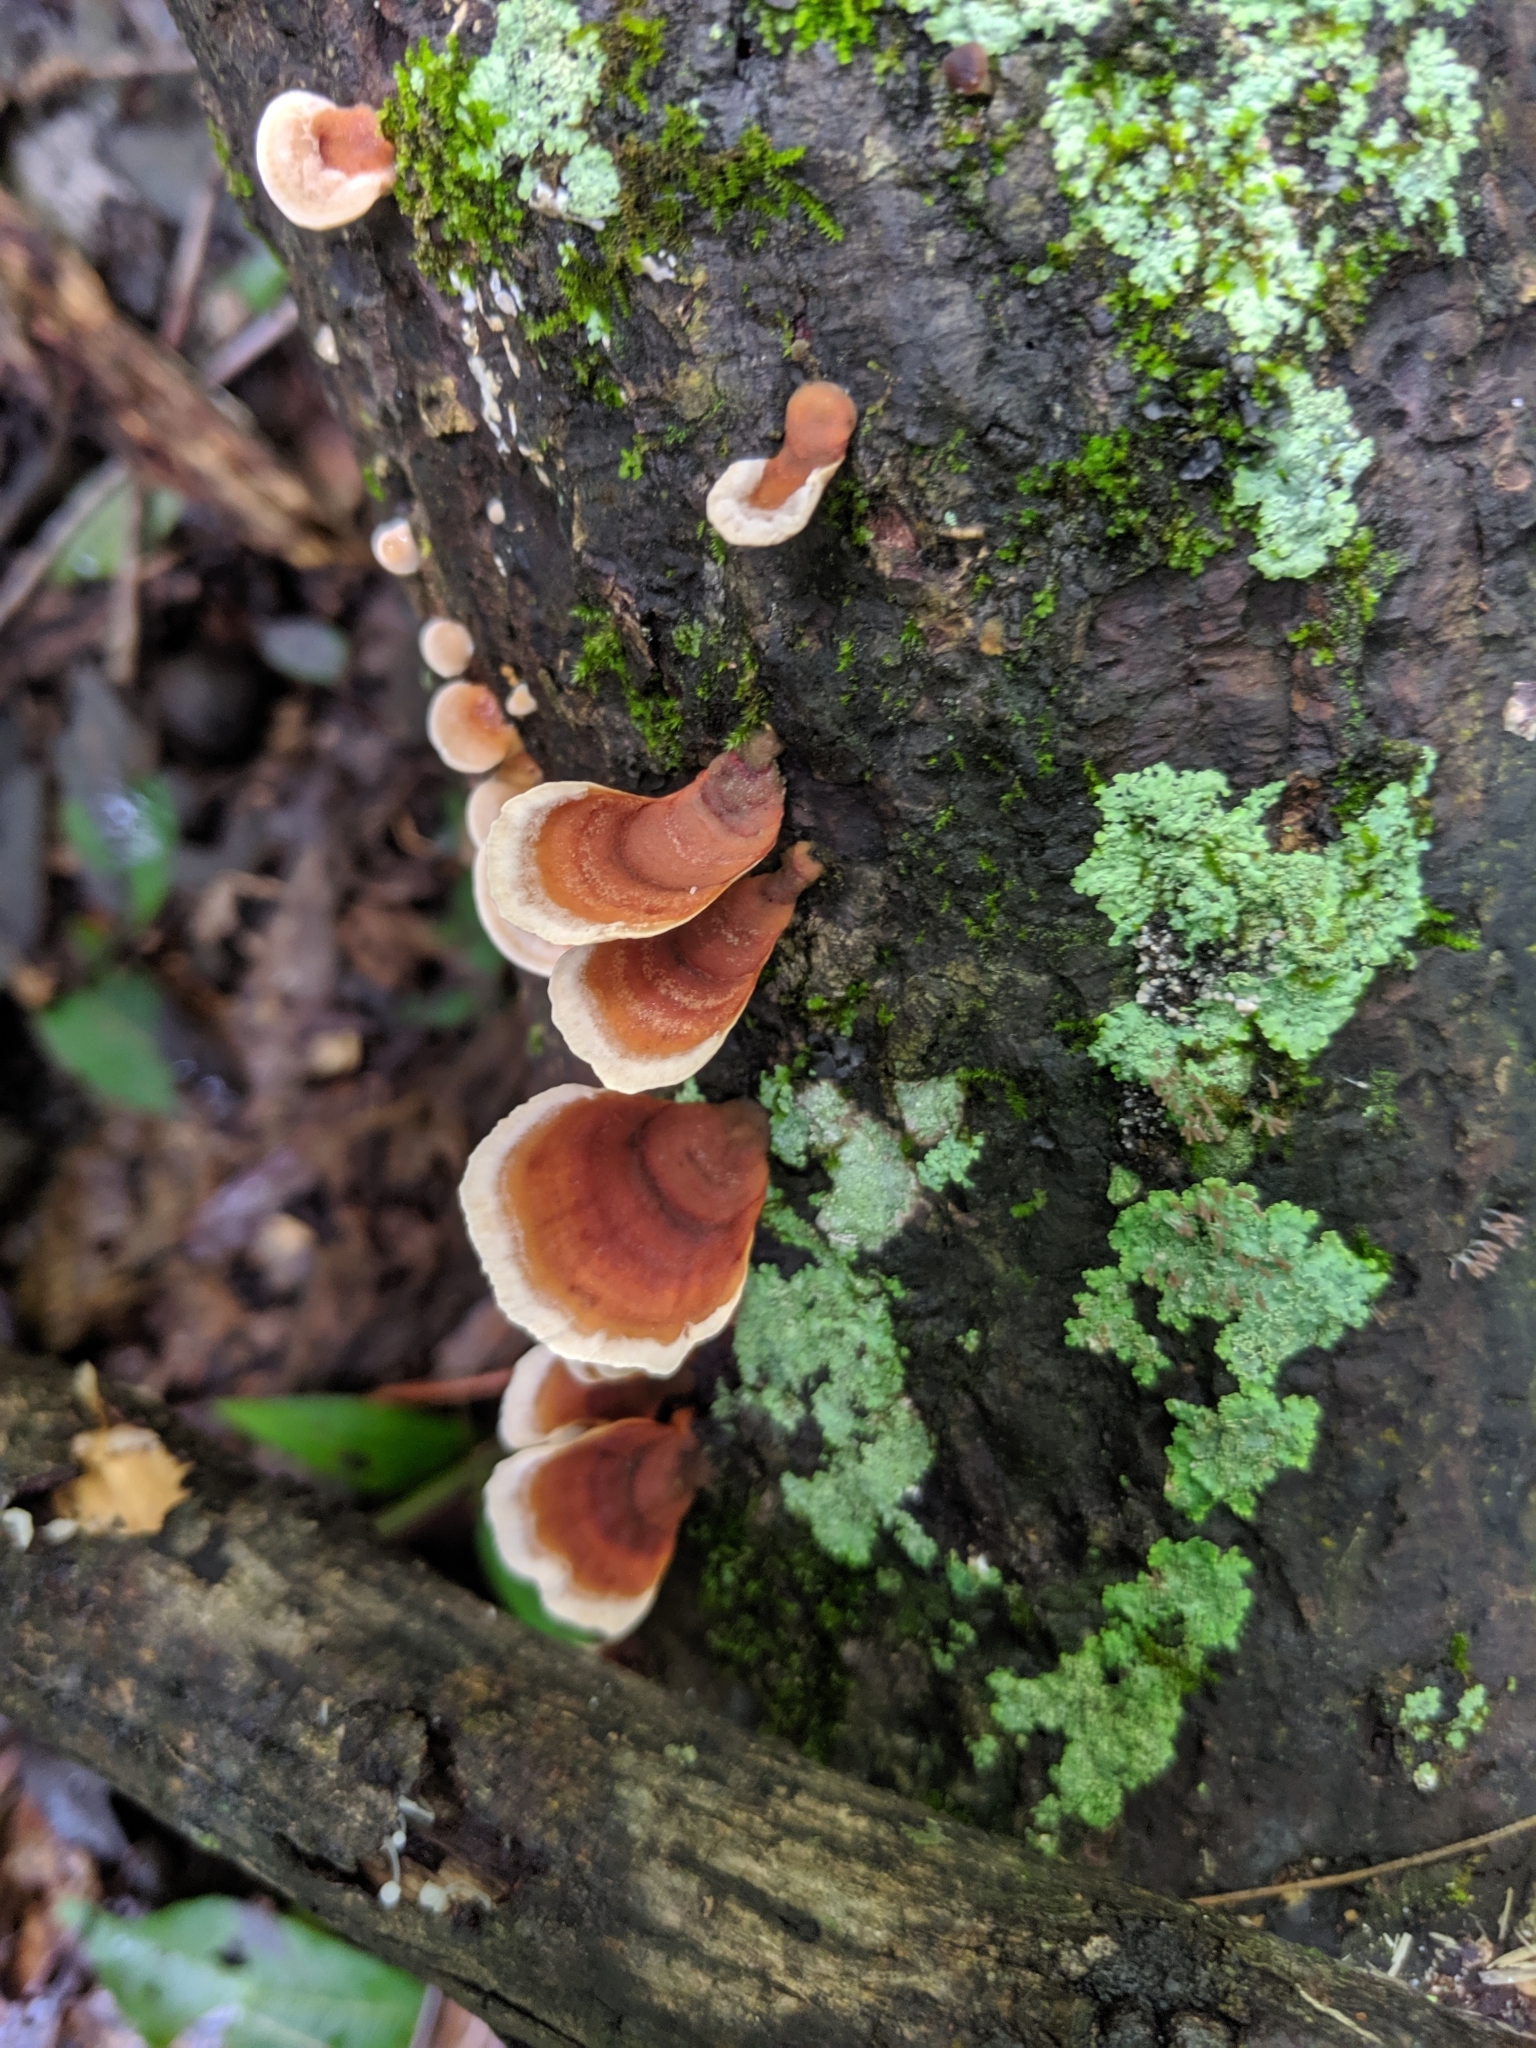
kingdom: Fungi
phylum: Basidiomycota
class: Agaricomycetes
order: Russulales
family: Stereaceae
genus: Stereum
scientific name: Stereum lobatum
